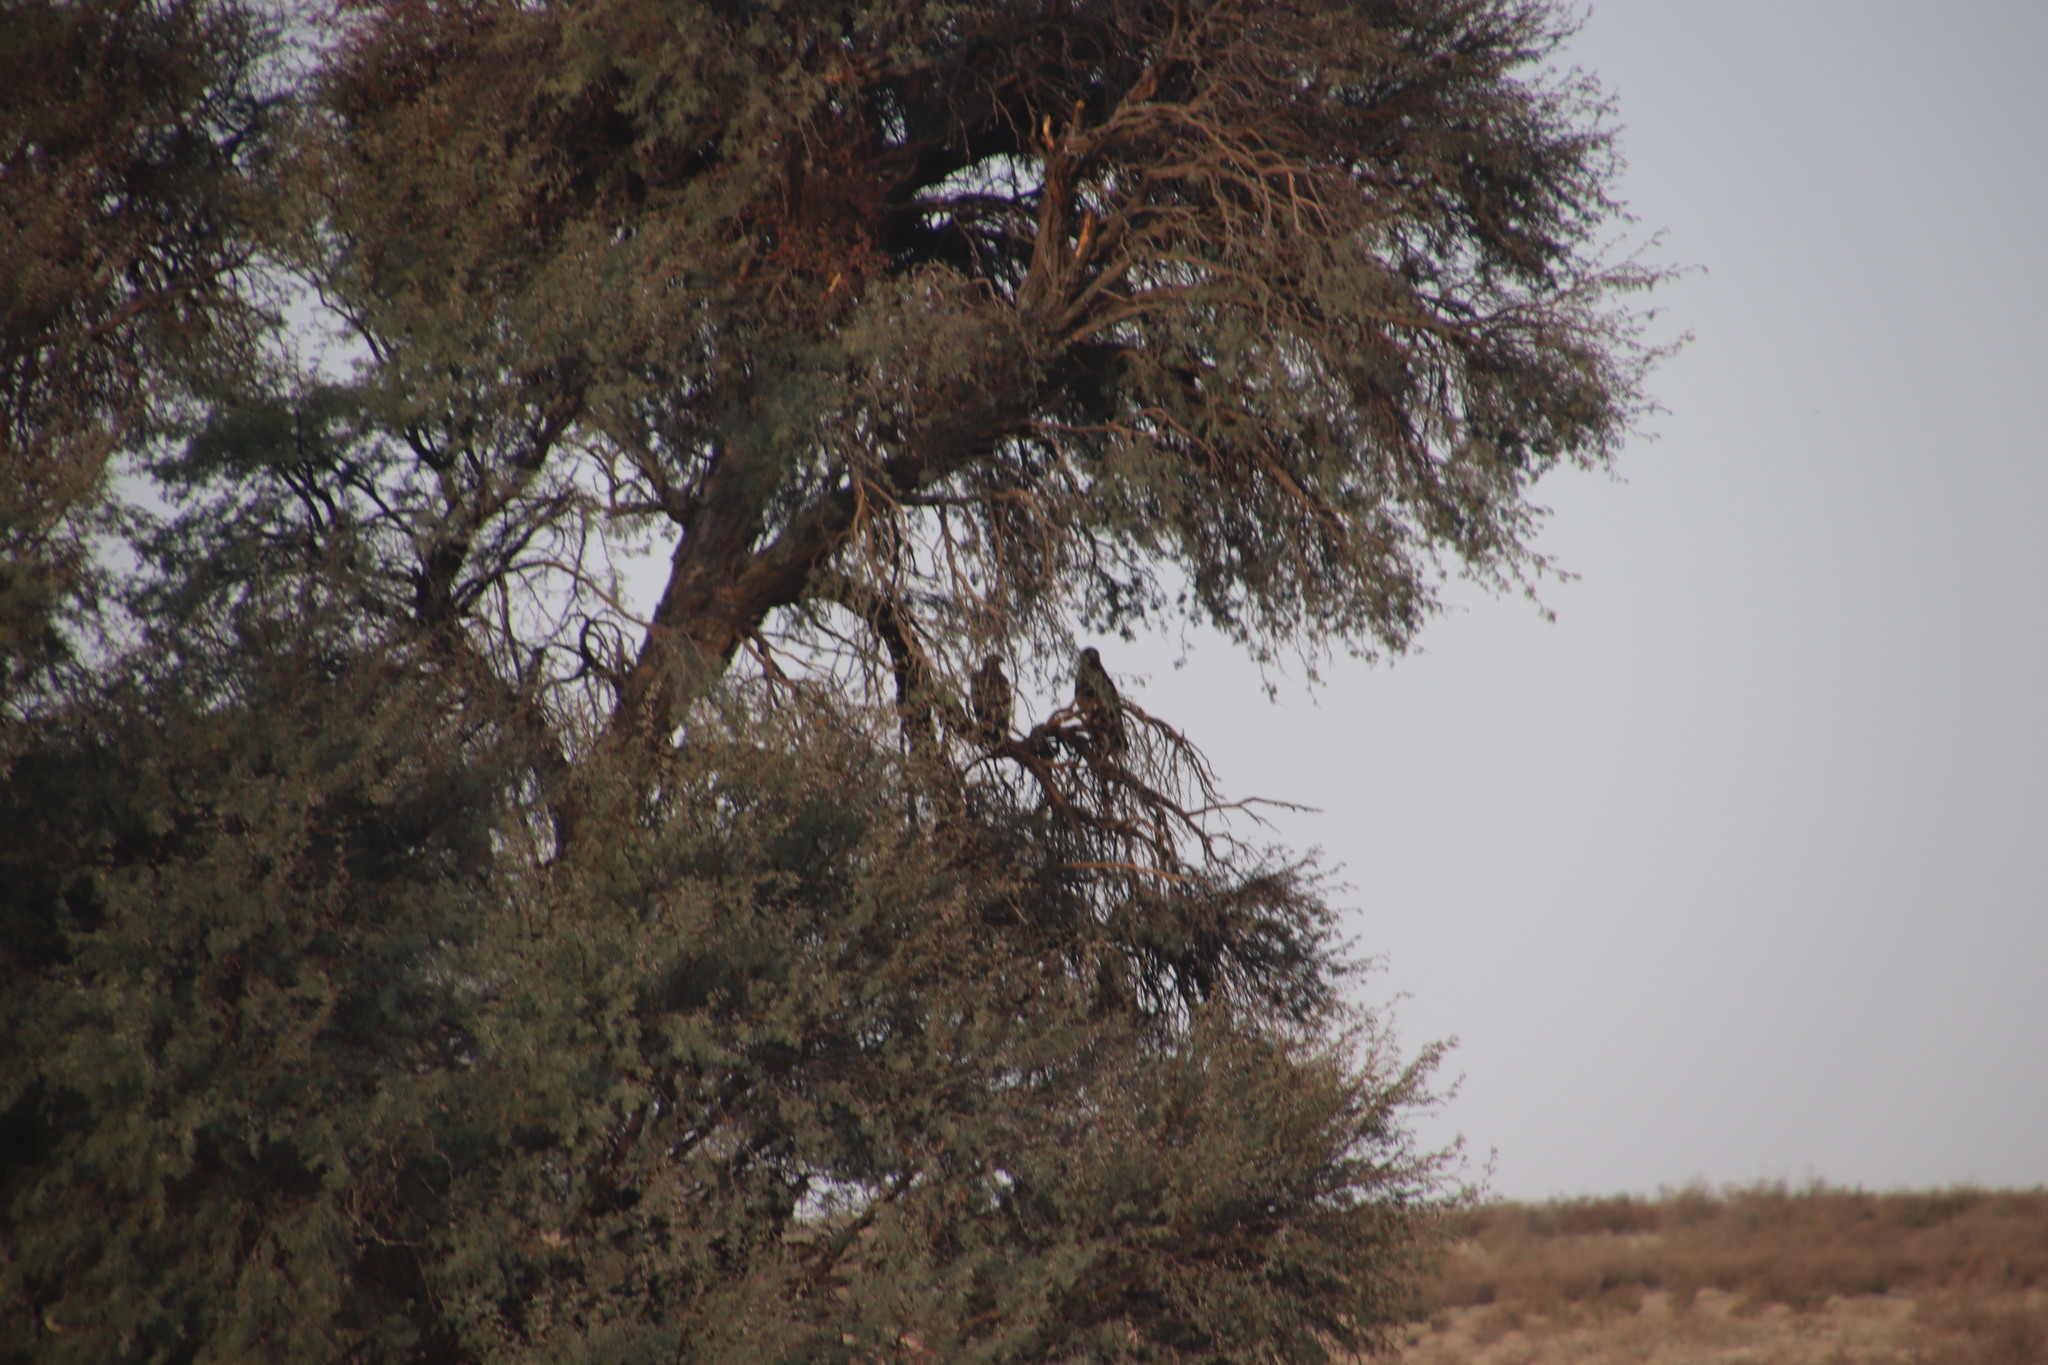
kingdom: Plantae
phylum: Tracheophyta
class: Magnoliopsida
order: Fabales
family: Fabaceae
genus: Vachellia
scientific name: Vachellia erioloba
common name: Camel thorn
